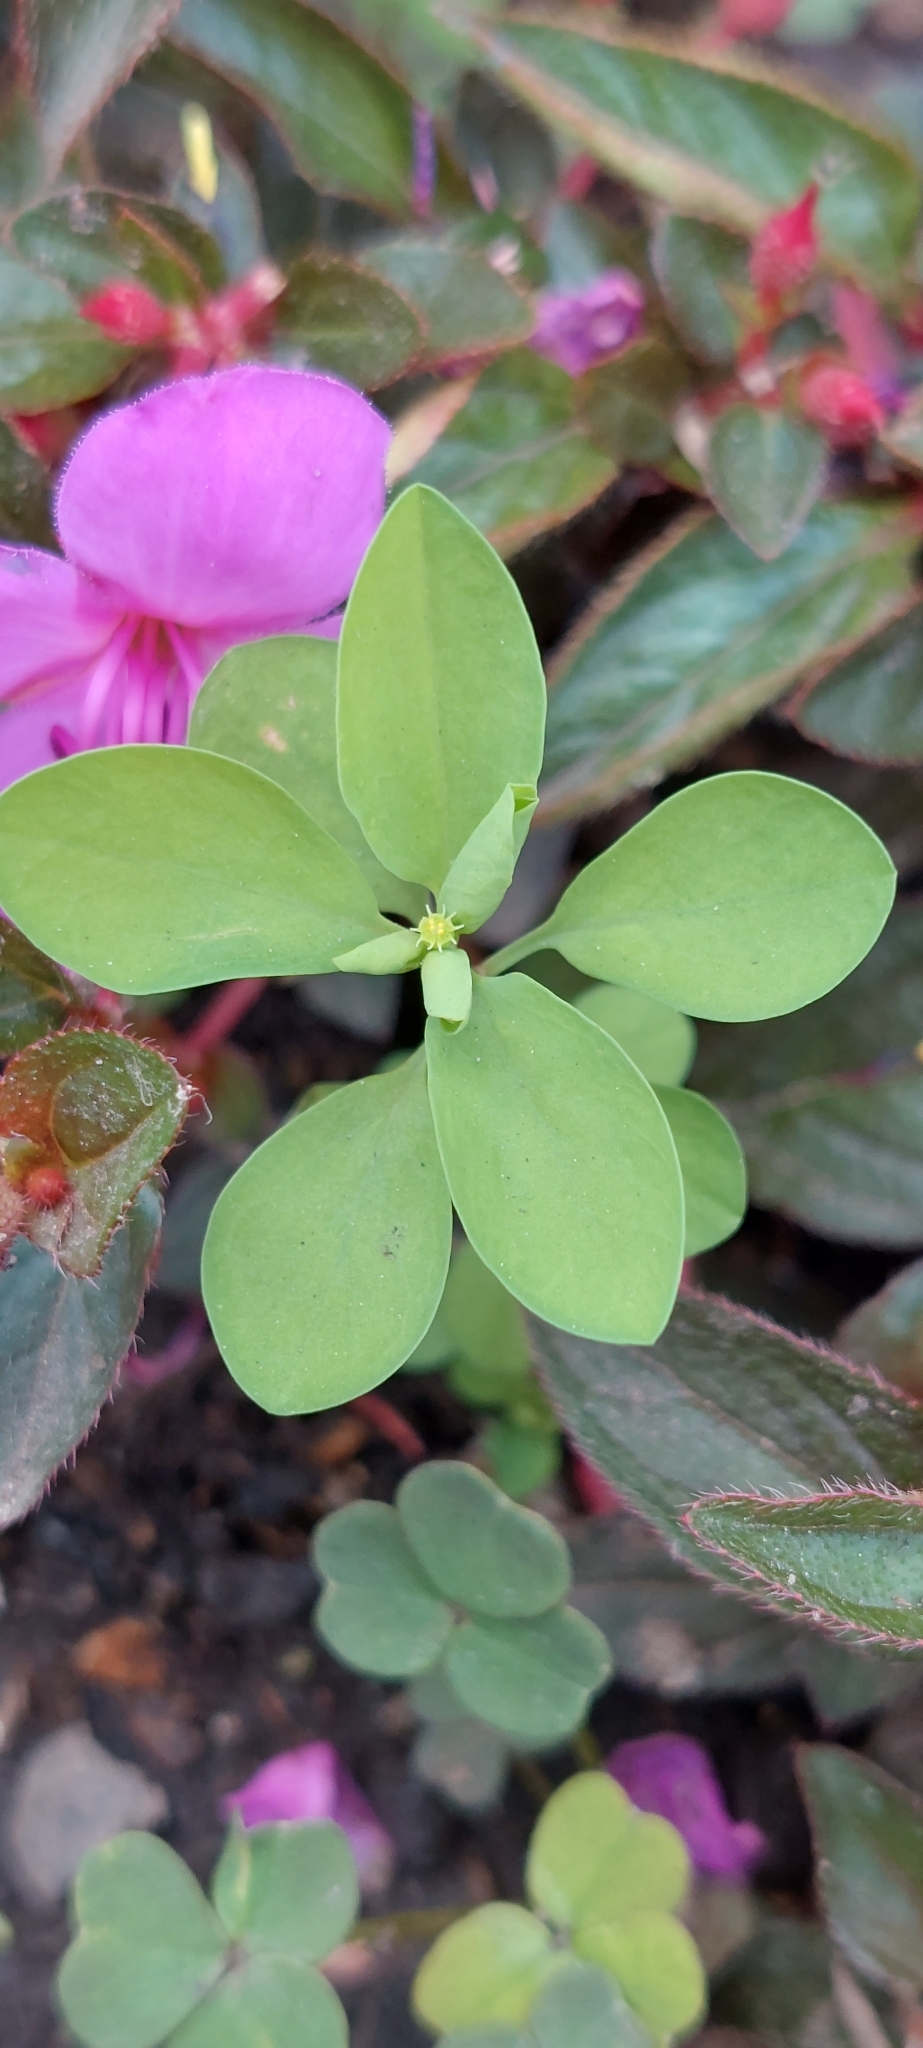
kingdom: Plantae
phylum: Tracheophyta
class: Magnoliopsida
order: Malpighiales
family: Euphorbiaceae
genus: Euphorbia
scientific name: Euphorbia peplus
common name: Petty spurge
